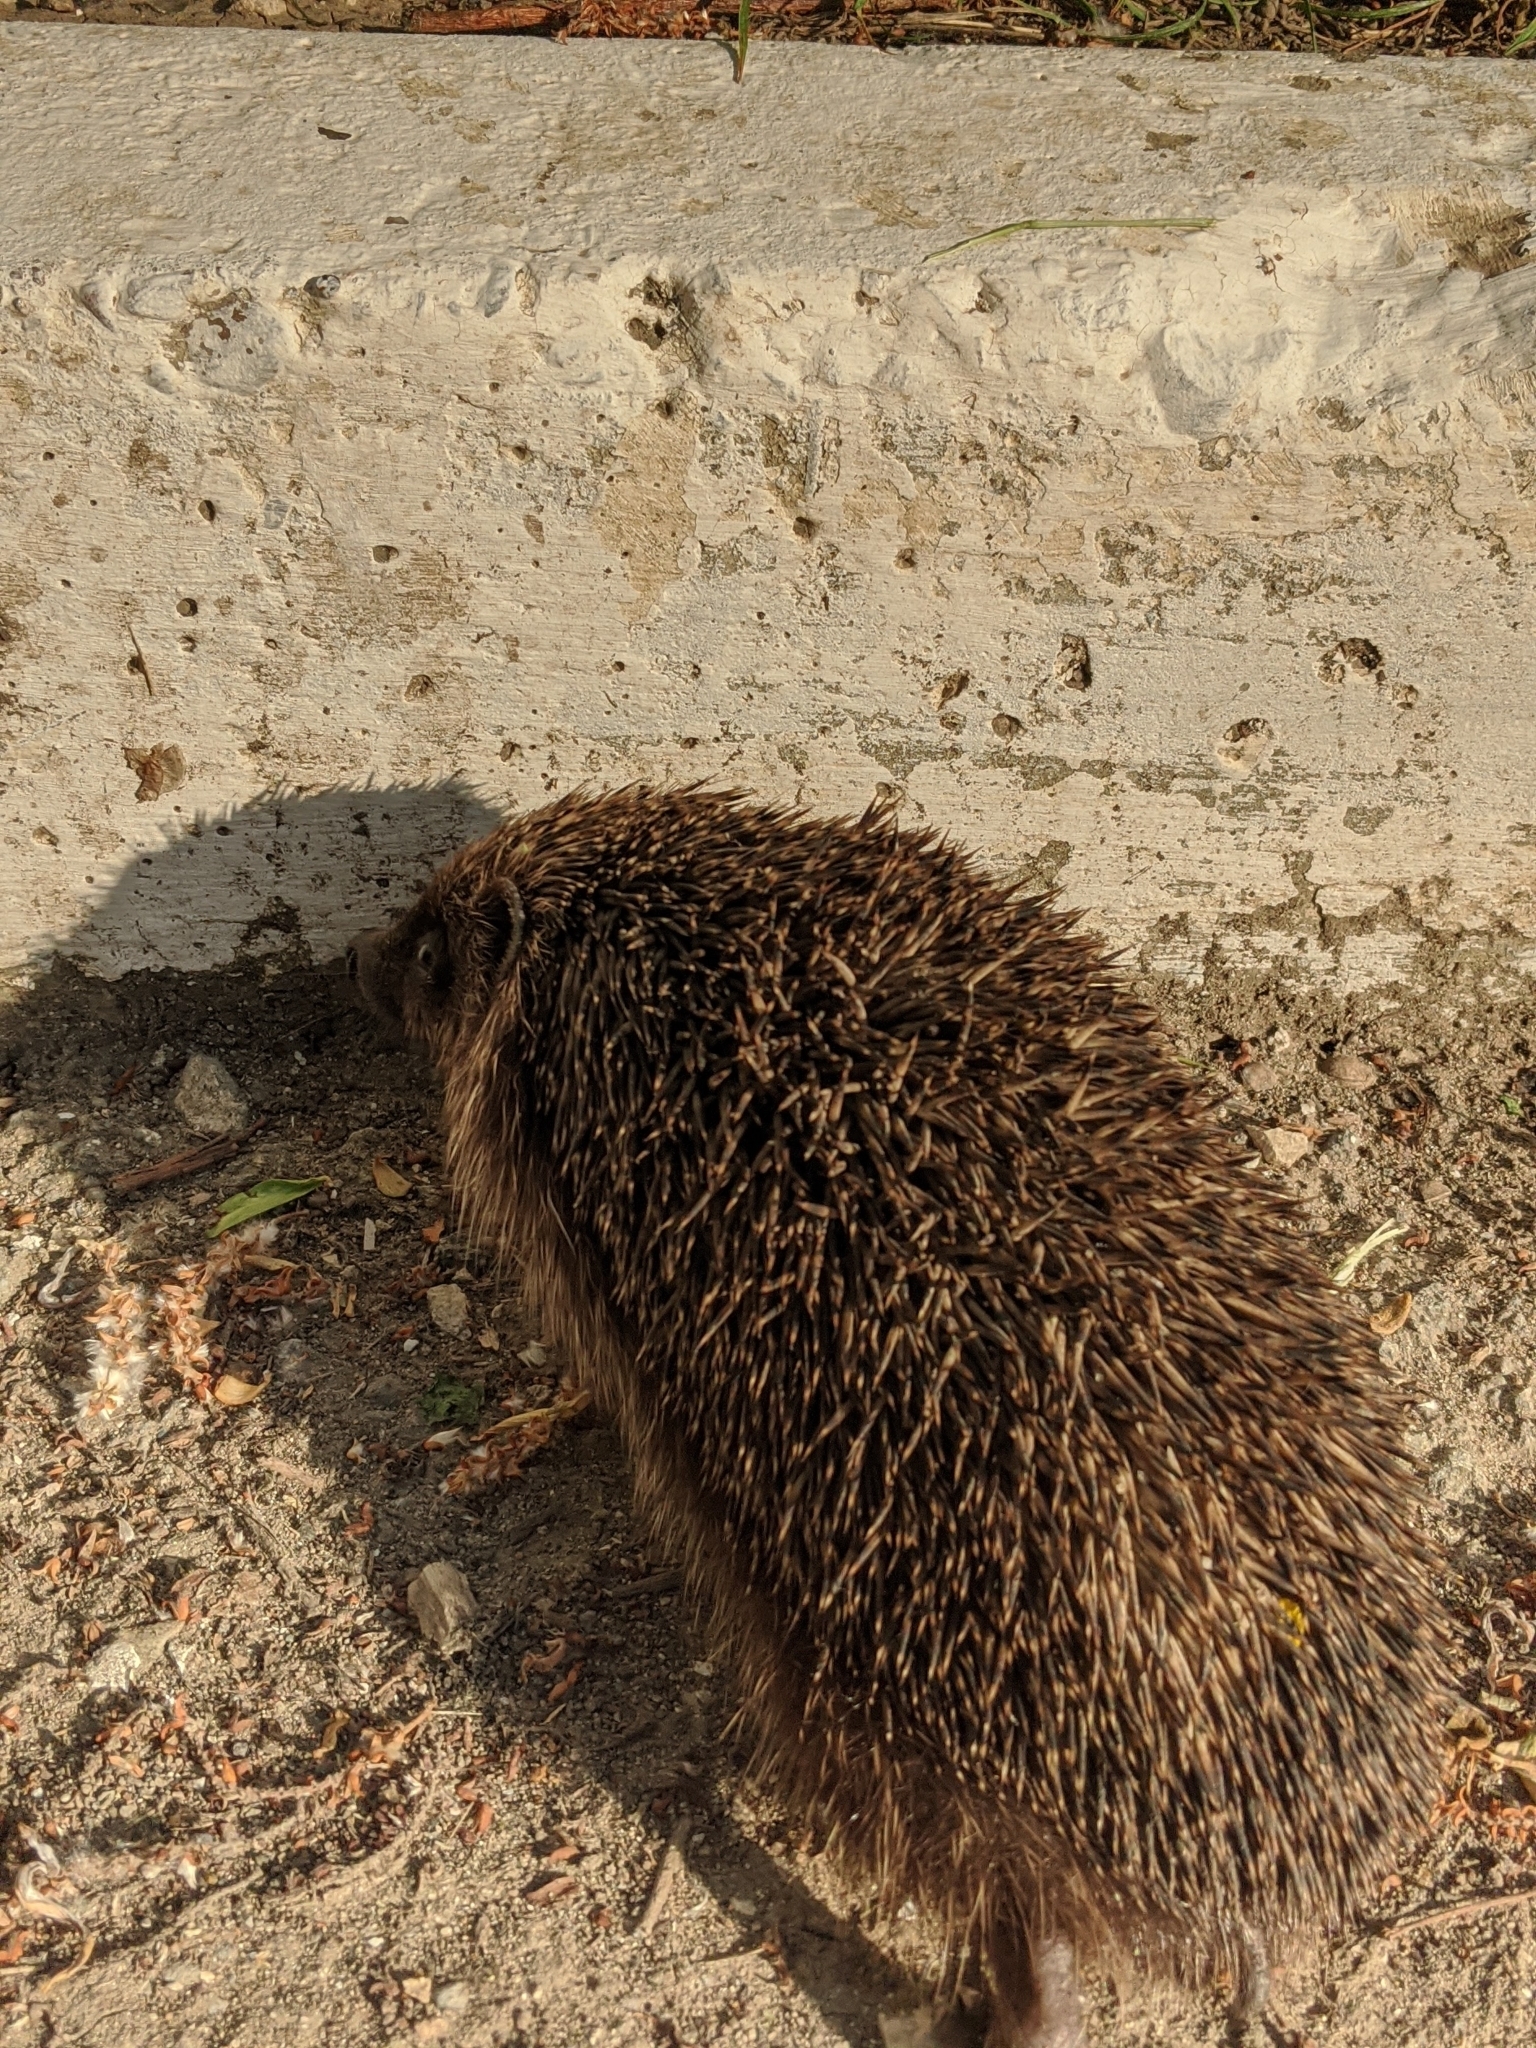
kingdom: Animalia
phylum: Chordata
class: Mammalia
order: Erinaceomorpha
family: Erinaceidae
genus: Erinaceus
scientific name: Erinaceus roumanicus
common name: Northern white-breasted hedgehog
